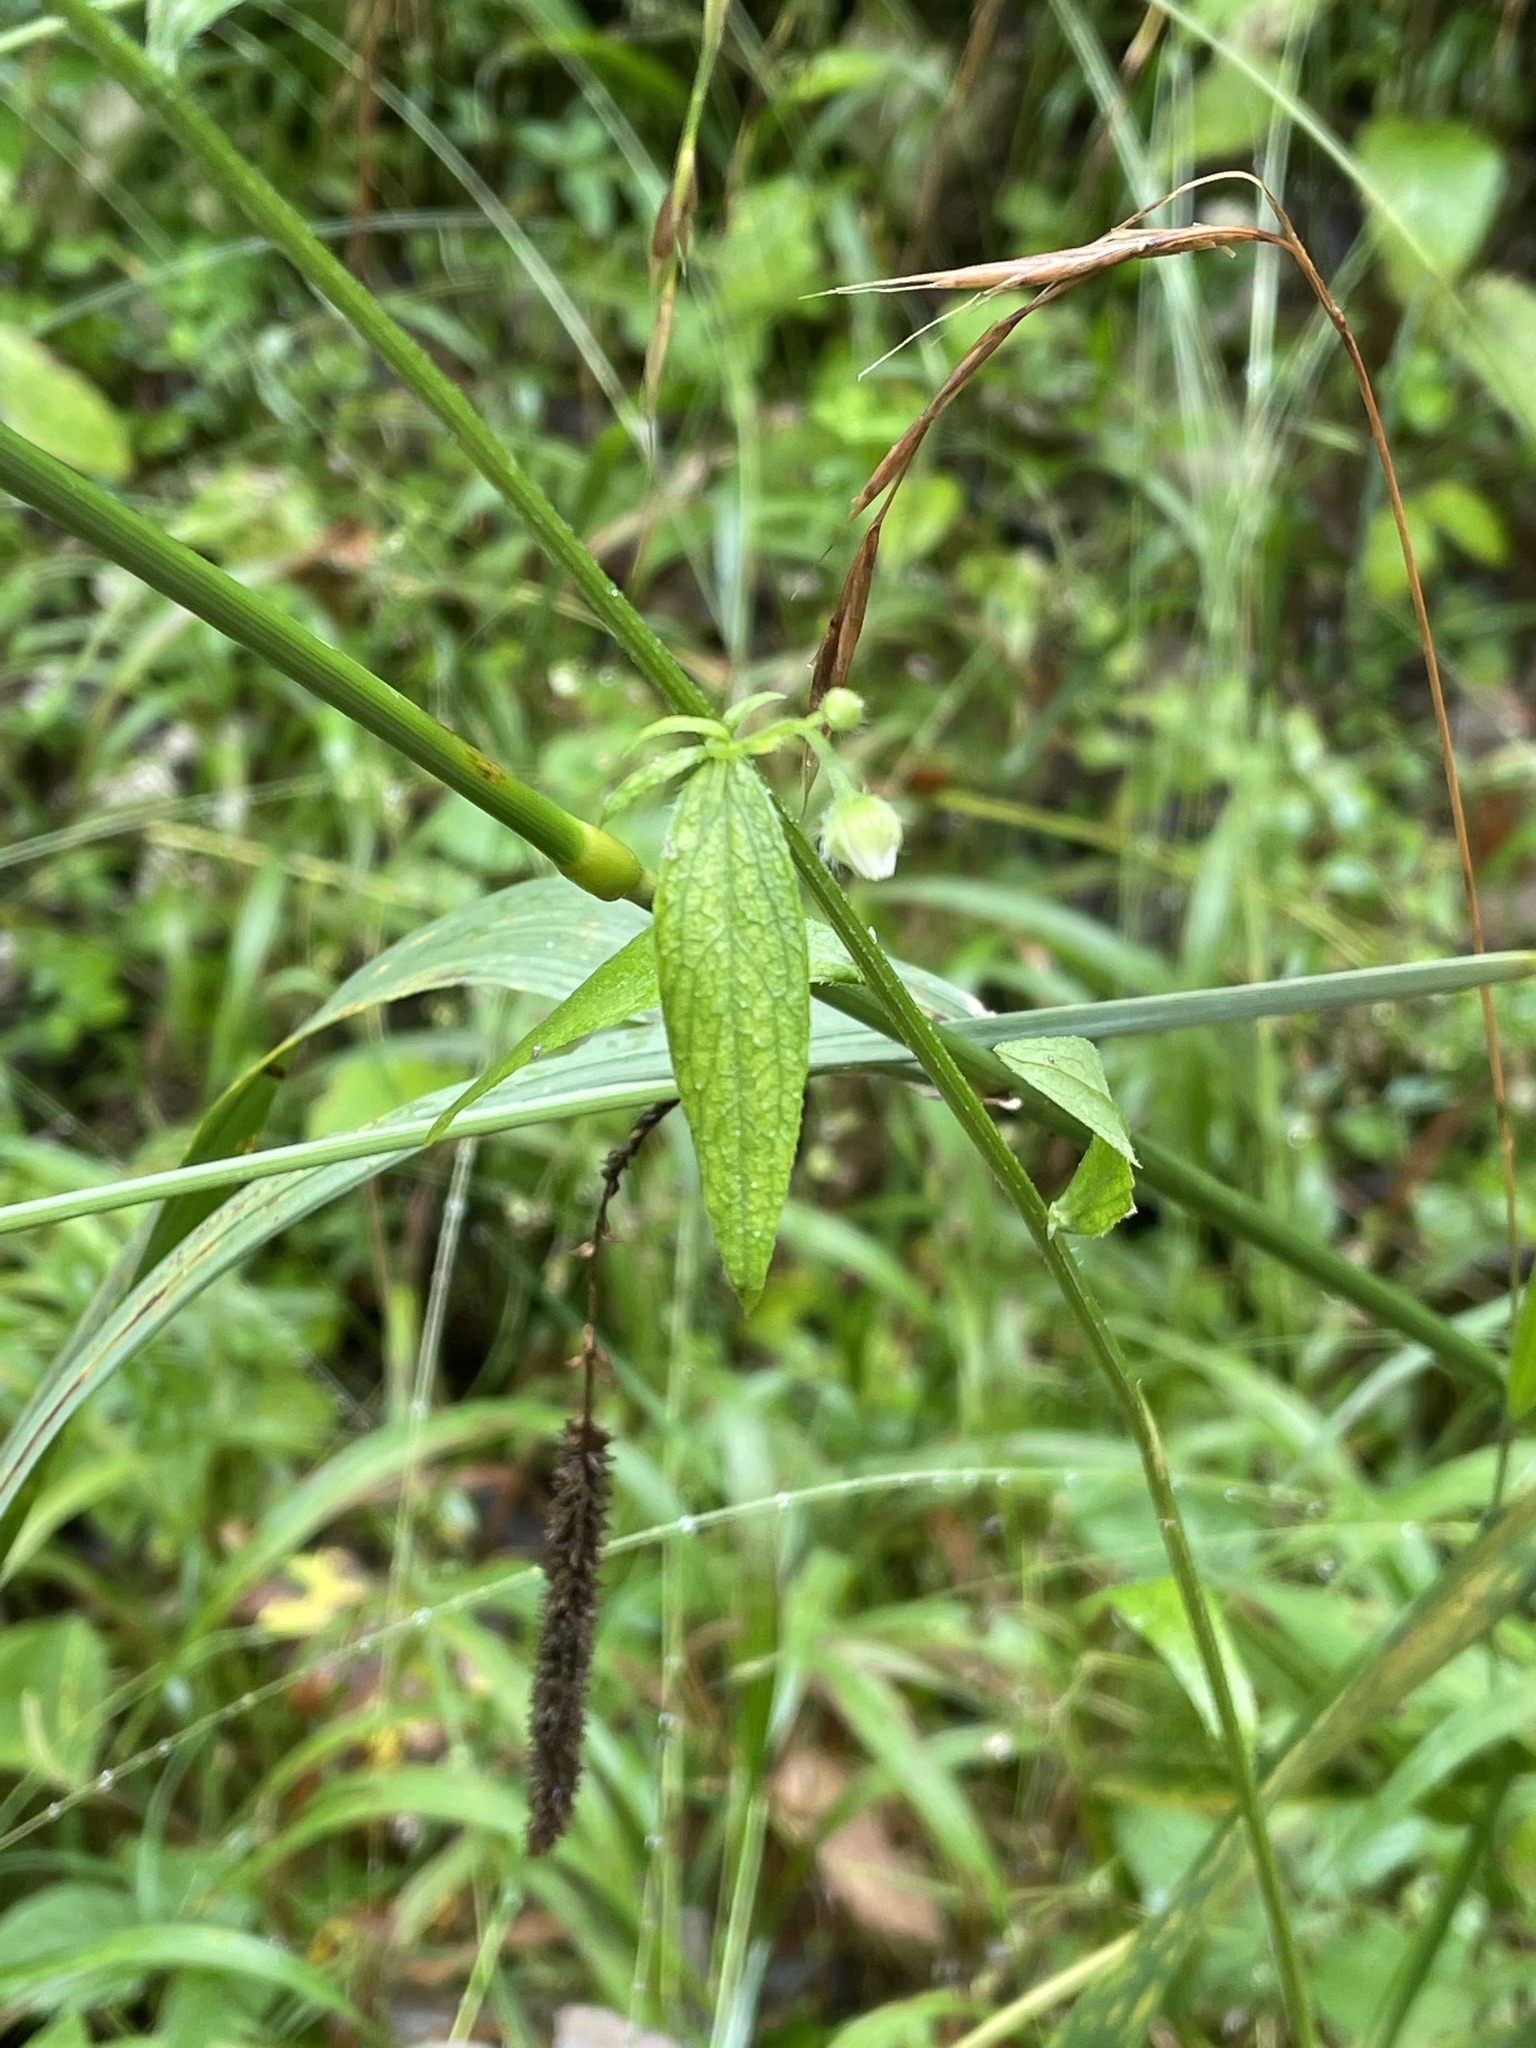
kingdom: Plantae
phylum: Tracheophyta
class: Magnoliopsida
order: Asterales
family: Asteraceae
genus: Erigeron
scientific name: Erigeron annuus
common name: Tall fleabane
